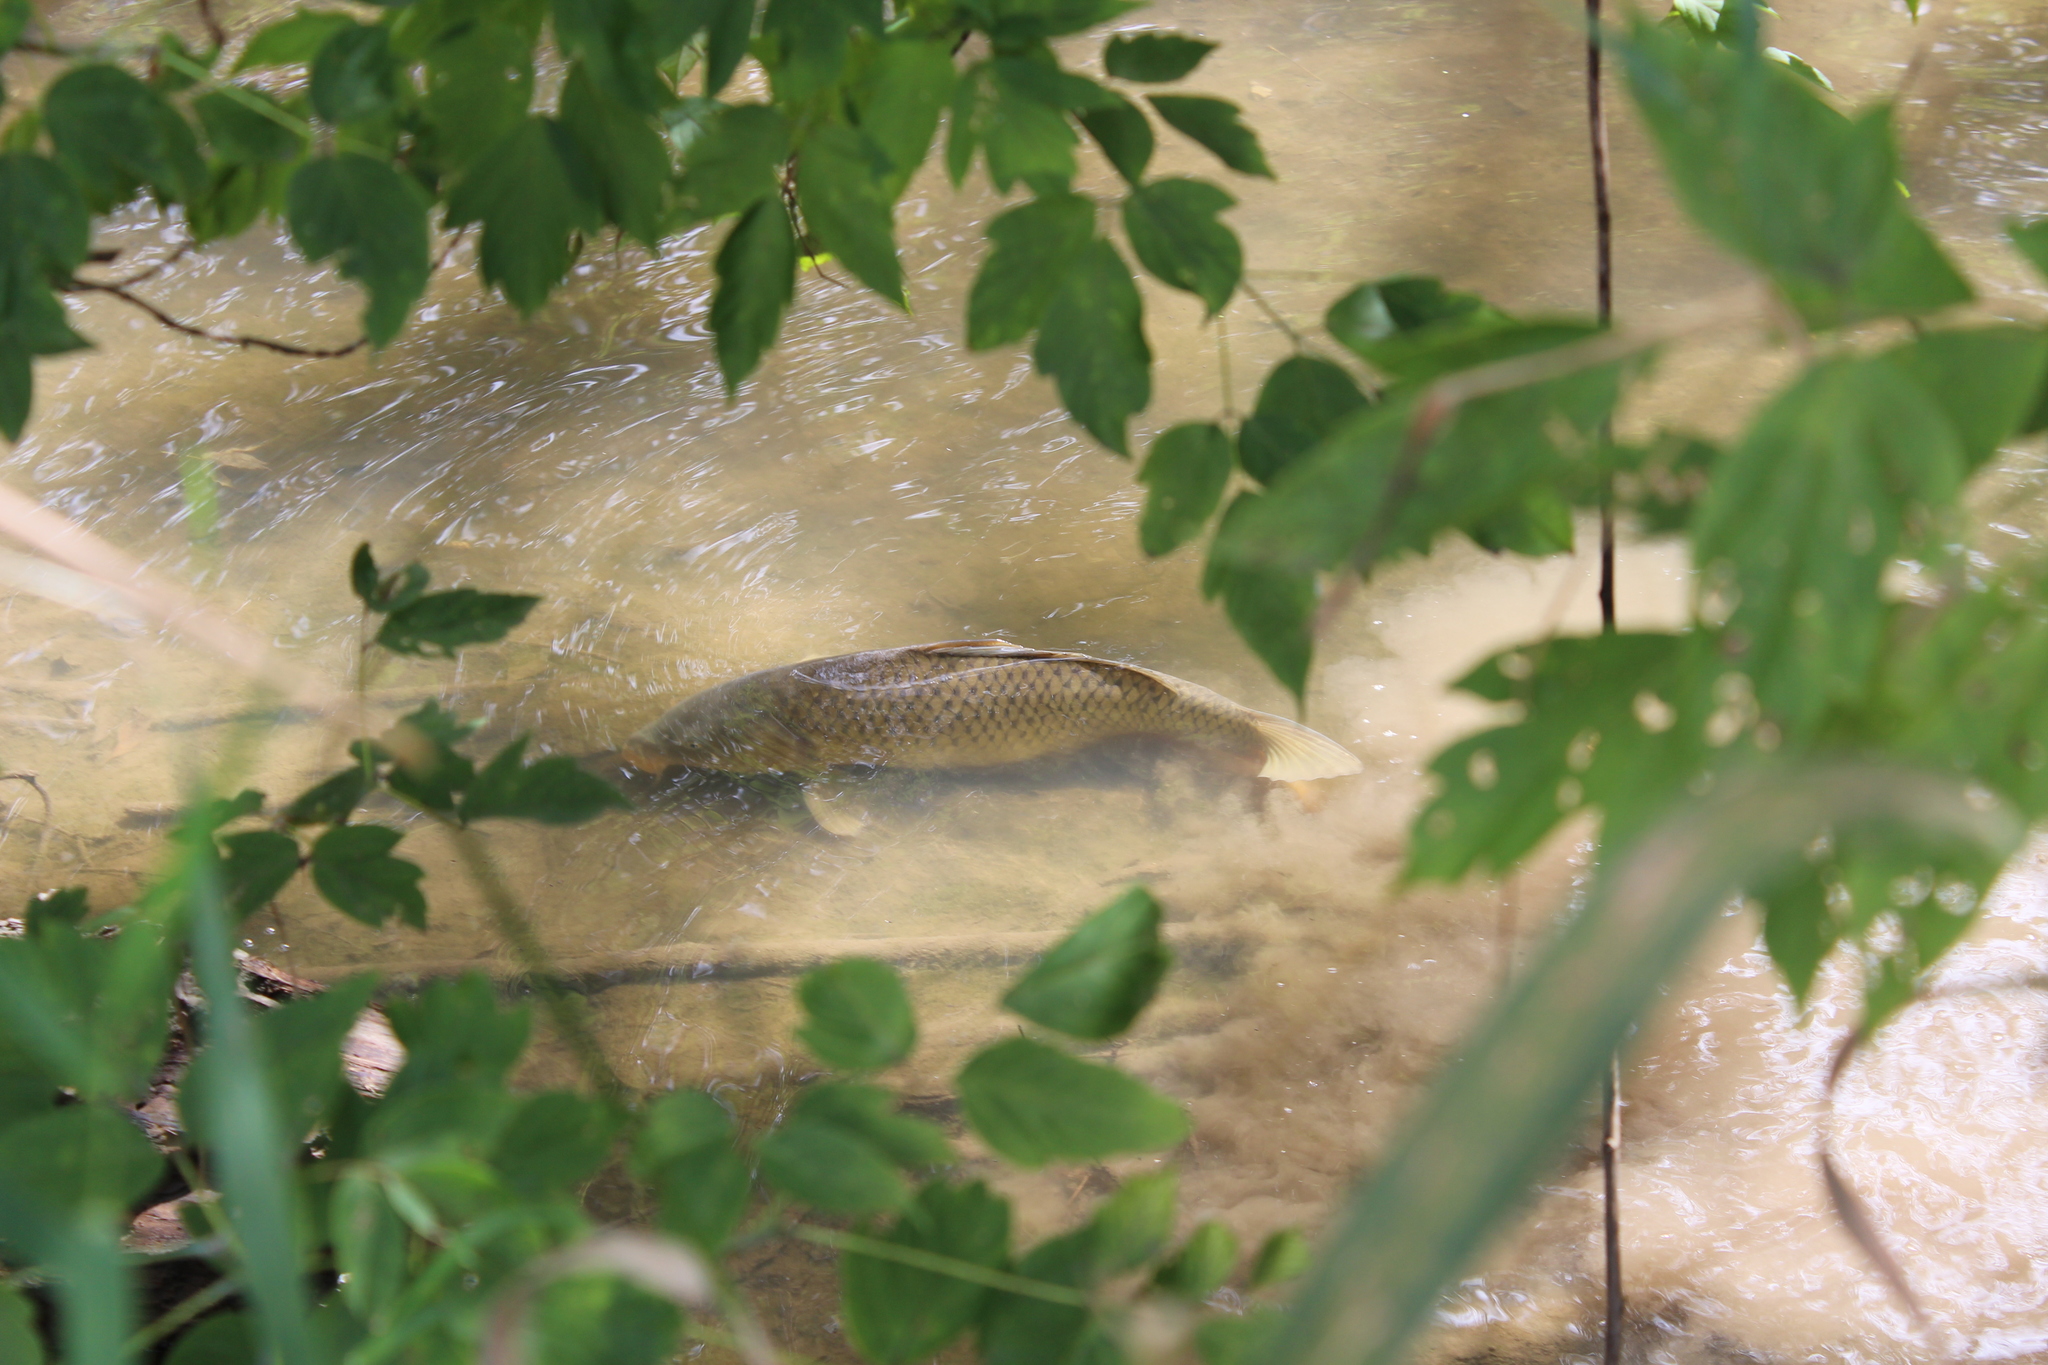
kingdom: Animalia
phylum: Chordata
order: Cypriniformes
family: Cyprinidae
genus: Cyprinus
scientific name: Cyprinus carpio
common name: Common carp
